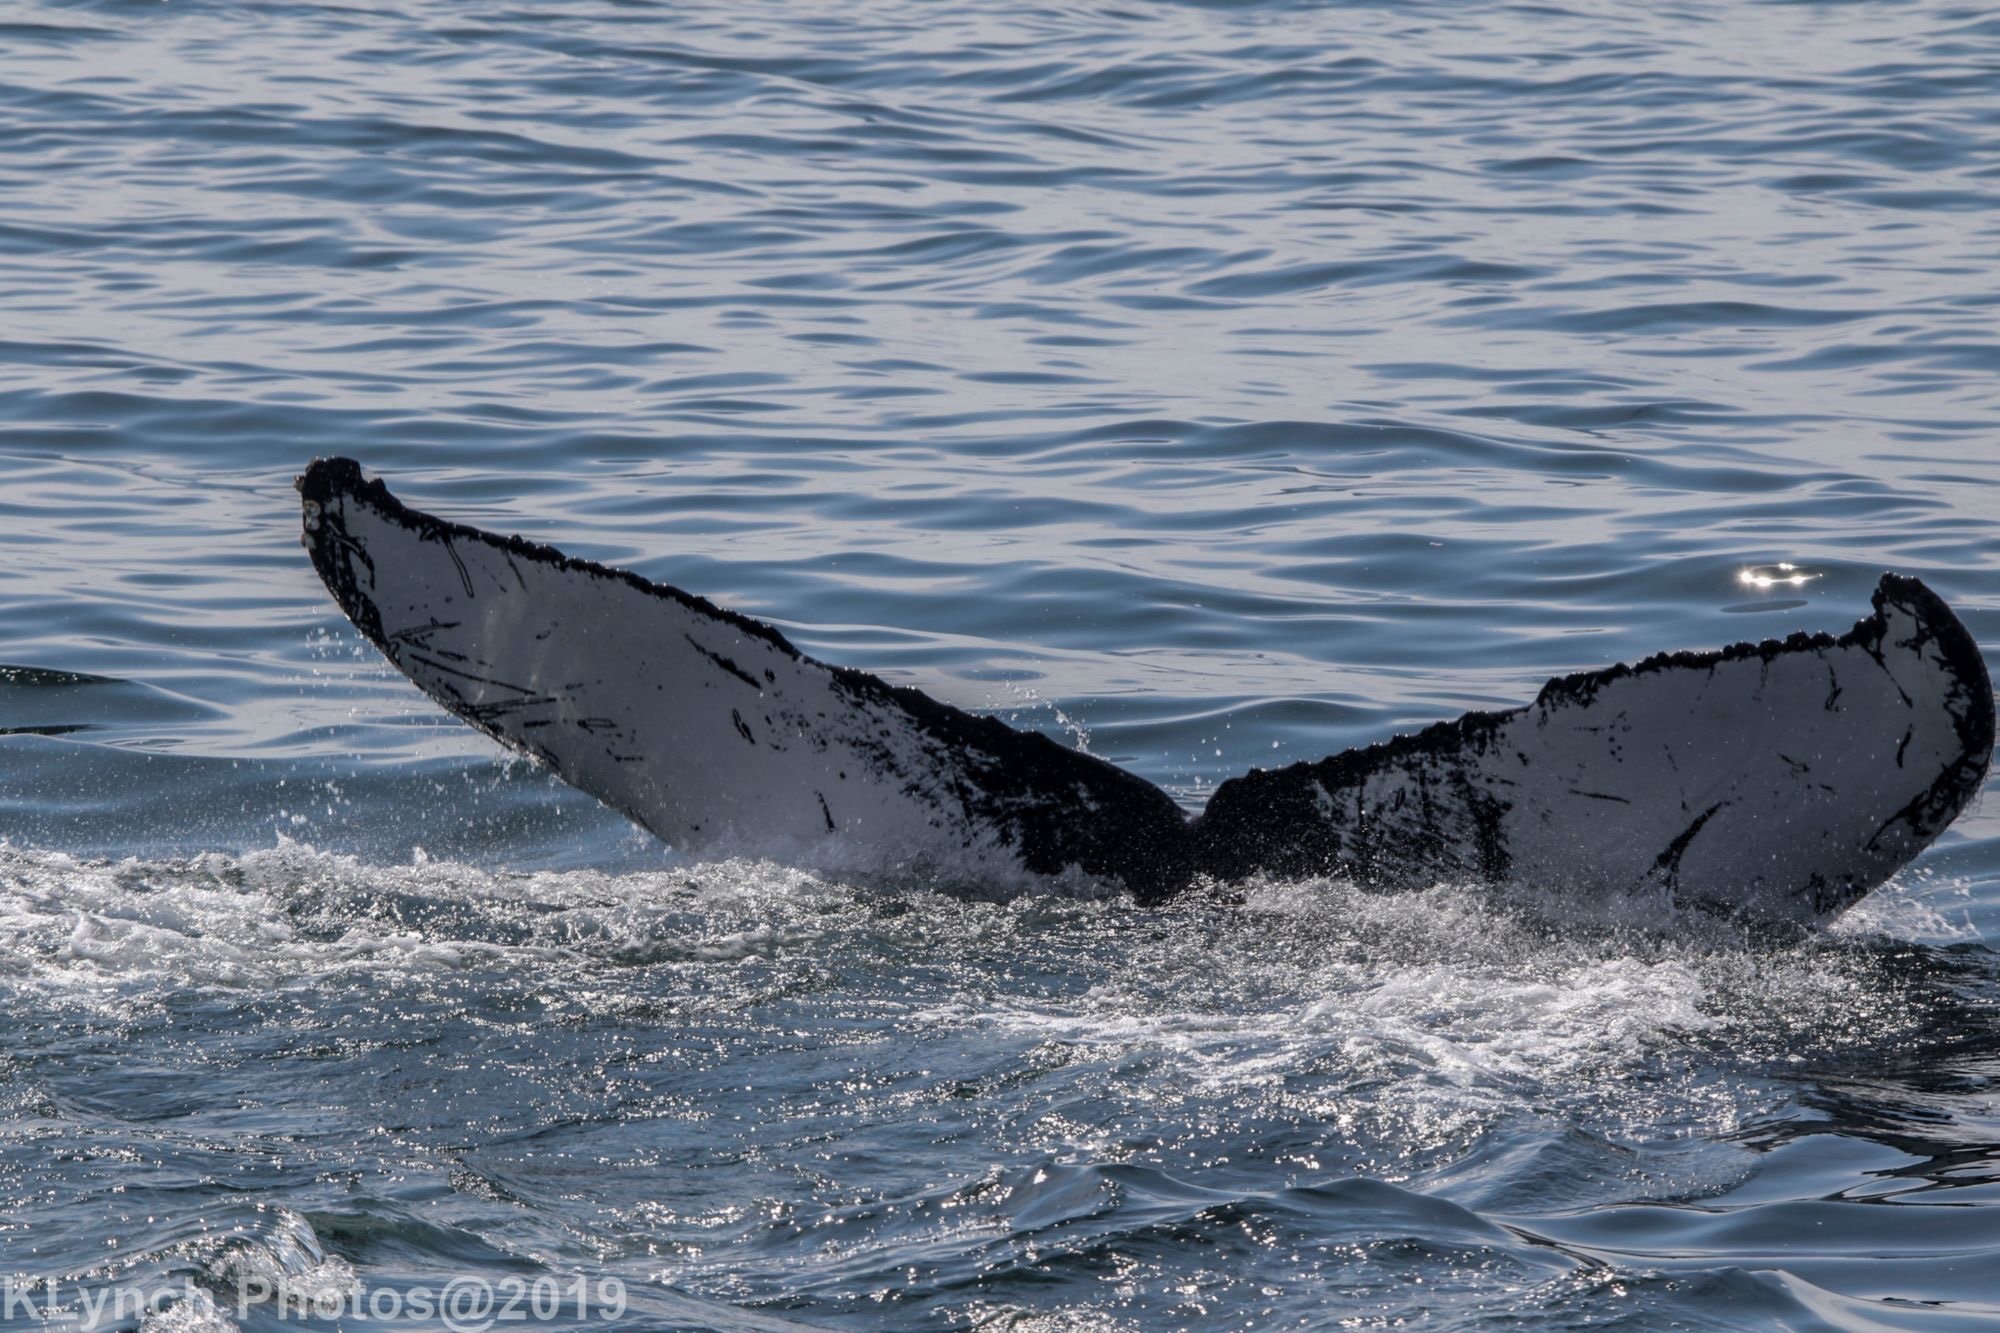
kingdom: Animalia
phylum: Chordata
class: Mammalia
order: Cetacea
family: Balaenopteridae
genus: Megaptera
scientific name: Megaptera novaeangliae
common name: Humpback whale
